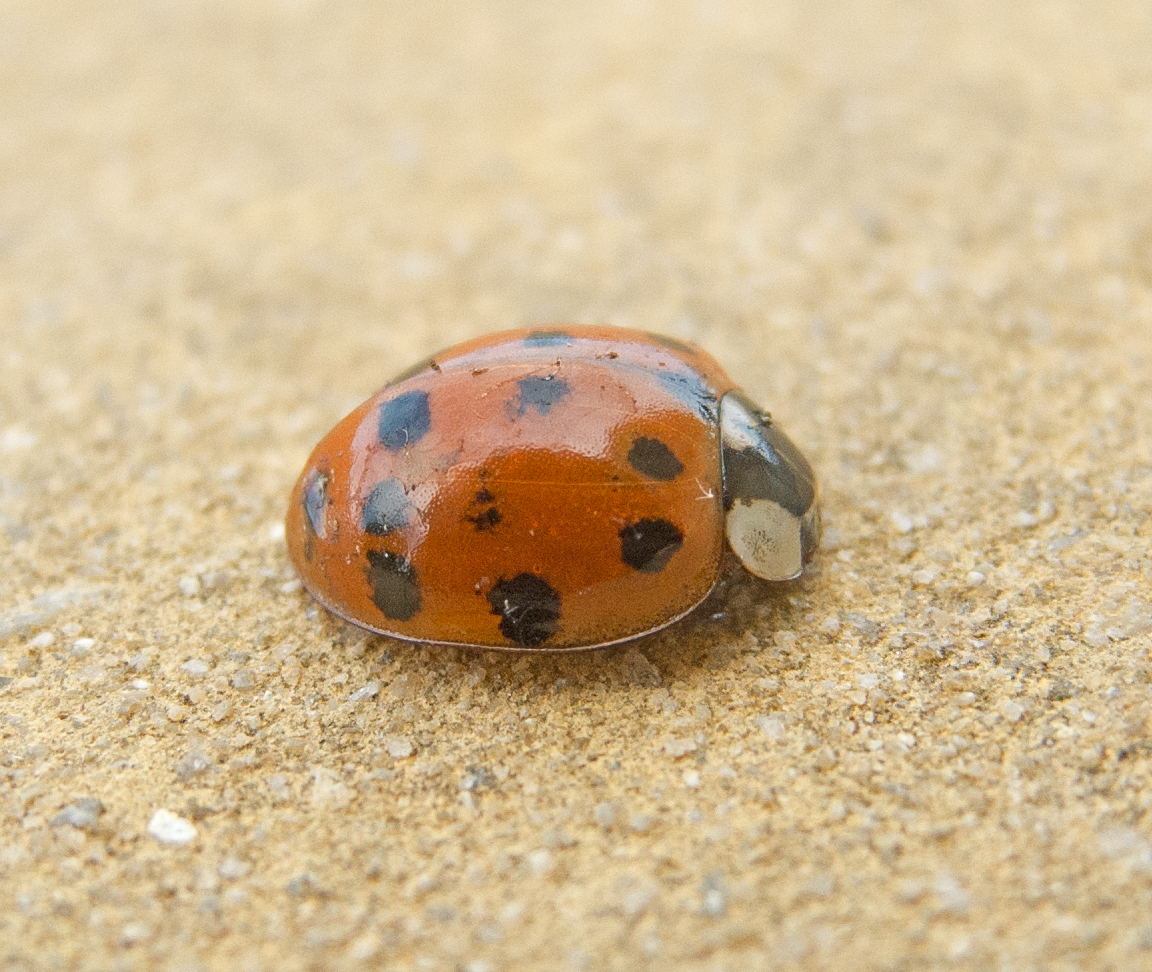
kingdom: Animalia
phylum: Arthropoda
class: Insecta
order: Coleoptera
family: Coccinellidae
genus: Harmonia
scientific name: Harmonia axyridis
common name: Harlequin ladybird
